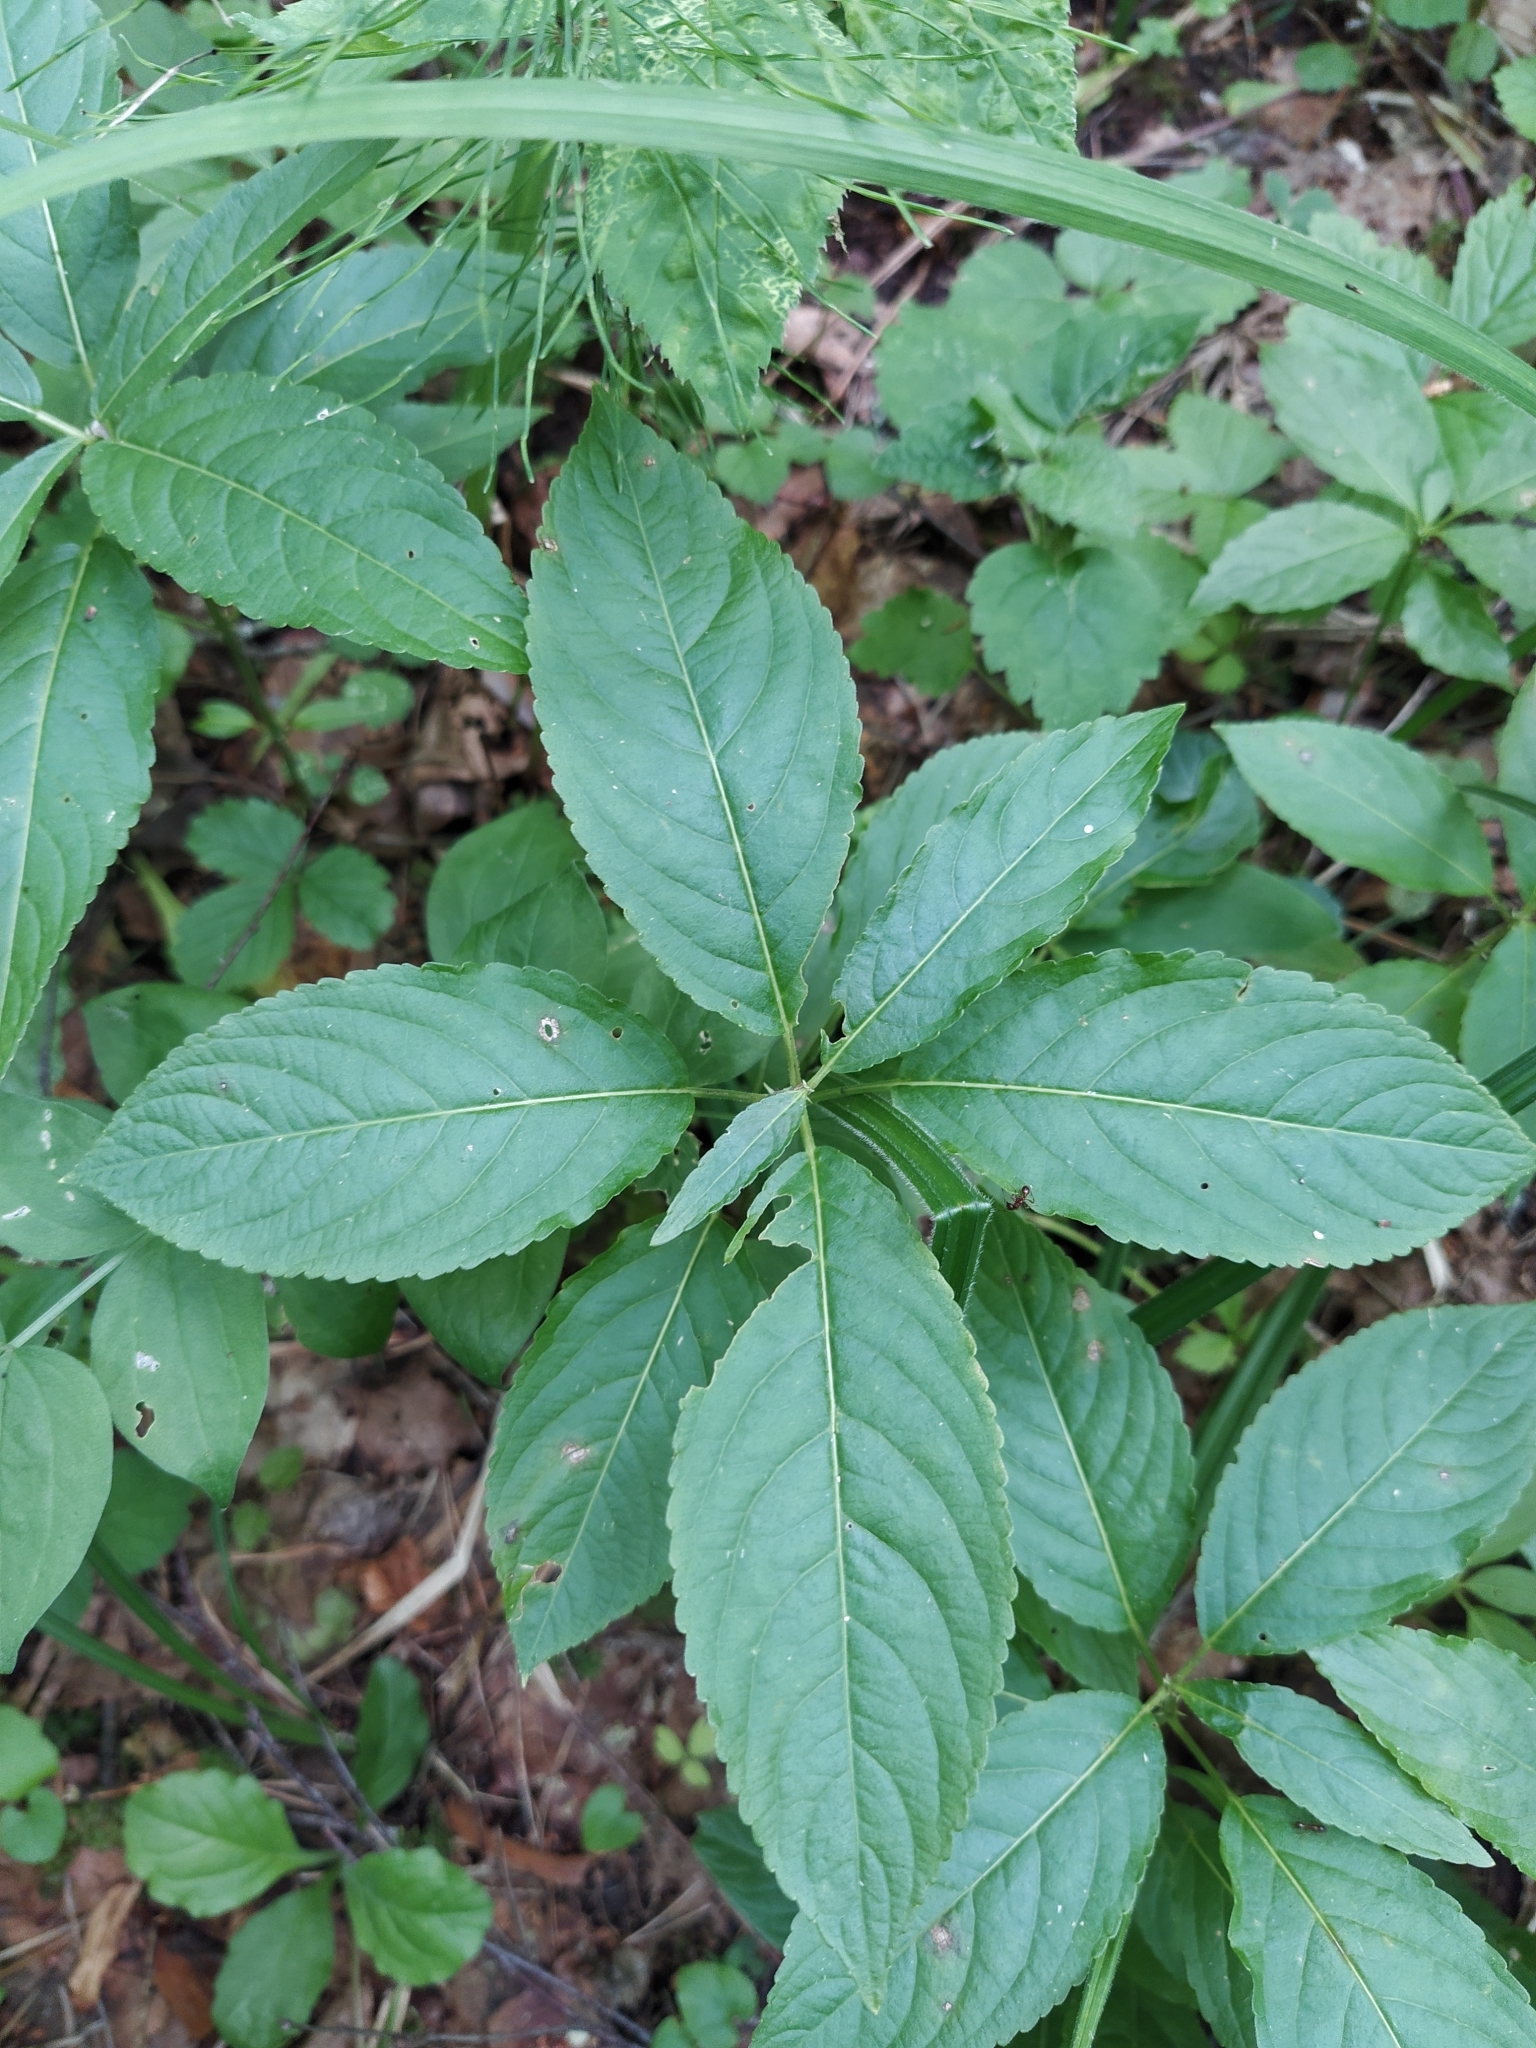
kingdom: Plantae
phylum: Tracheophyta
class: Magnoliopsida
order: Malpighiales
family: Euphorbiaceae
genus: Mercurialis
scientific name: Mercurialis perennis
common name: Dog mercury
